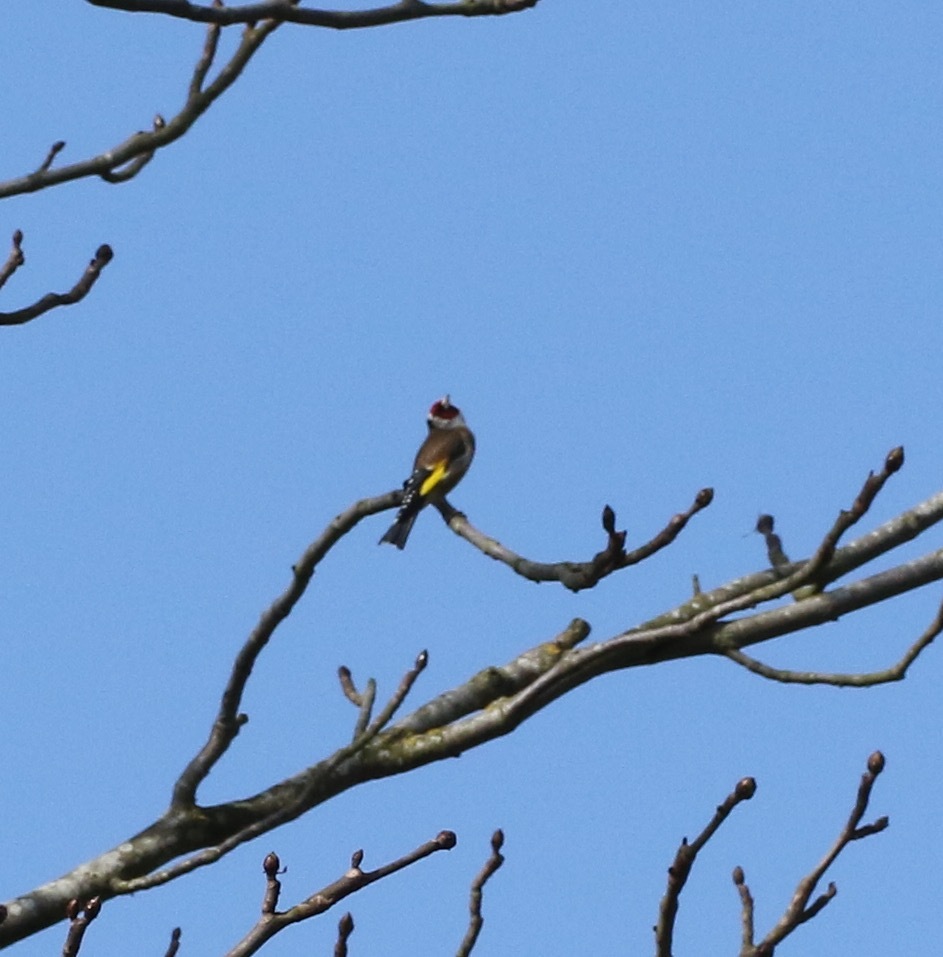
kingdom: Animalia
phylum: Chordata
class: Aves
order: Passeriformes
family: Fringillidae
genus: Carduelis
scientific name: Carduelis carduelis
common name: European goldfinch
